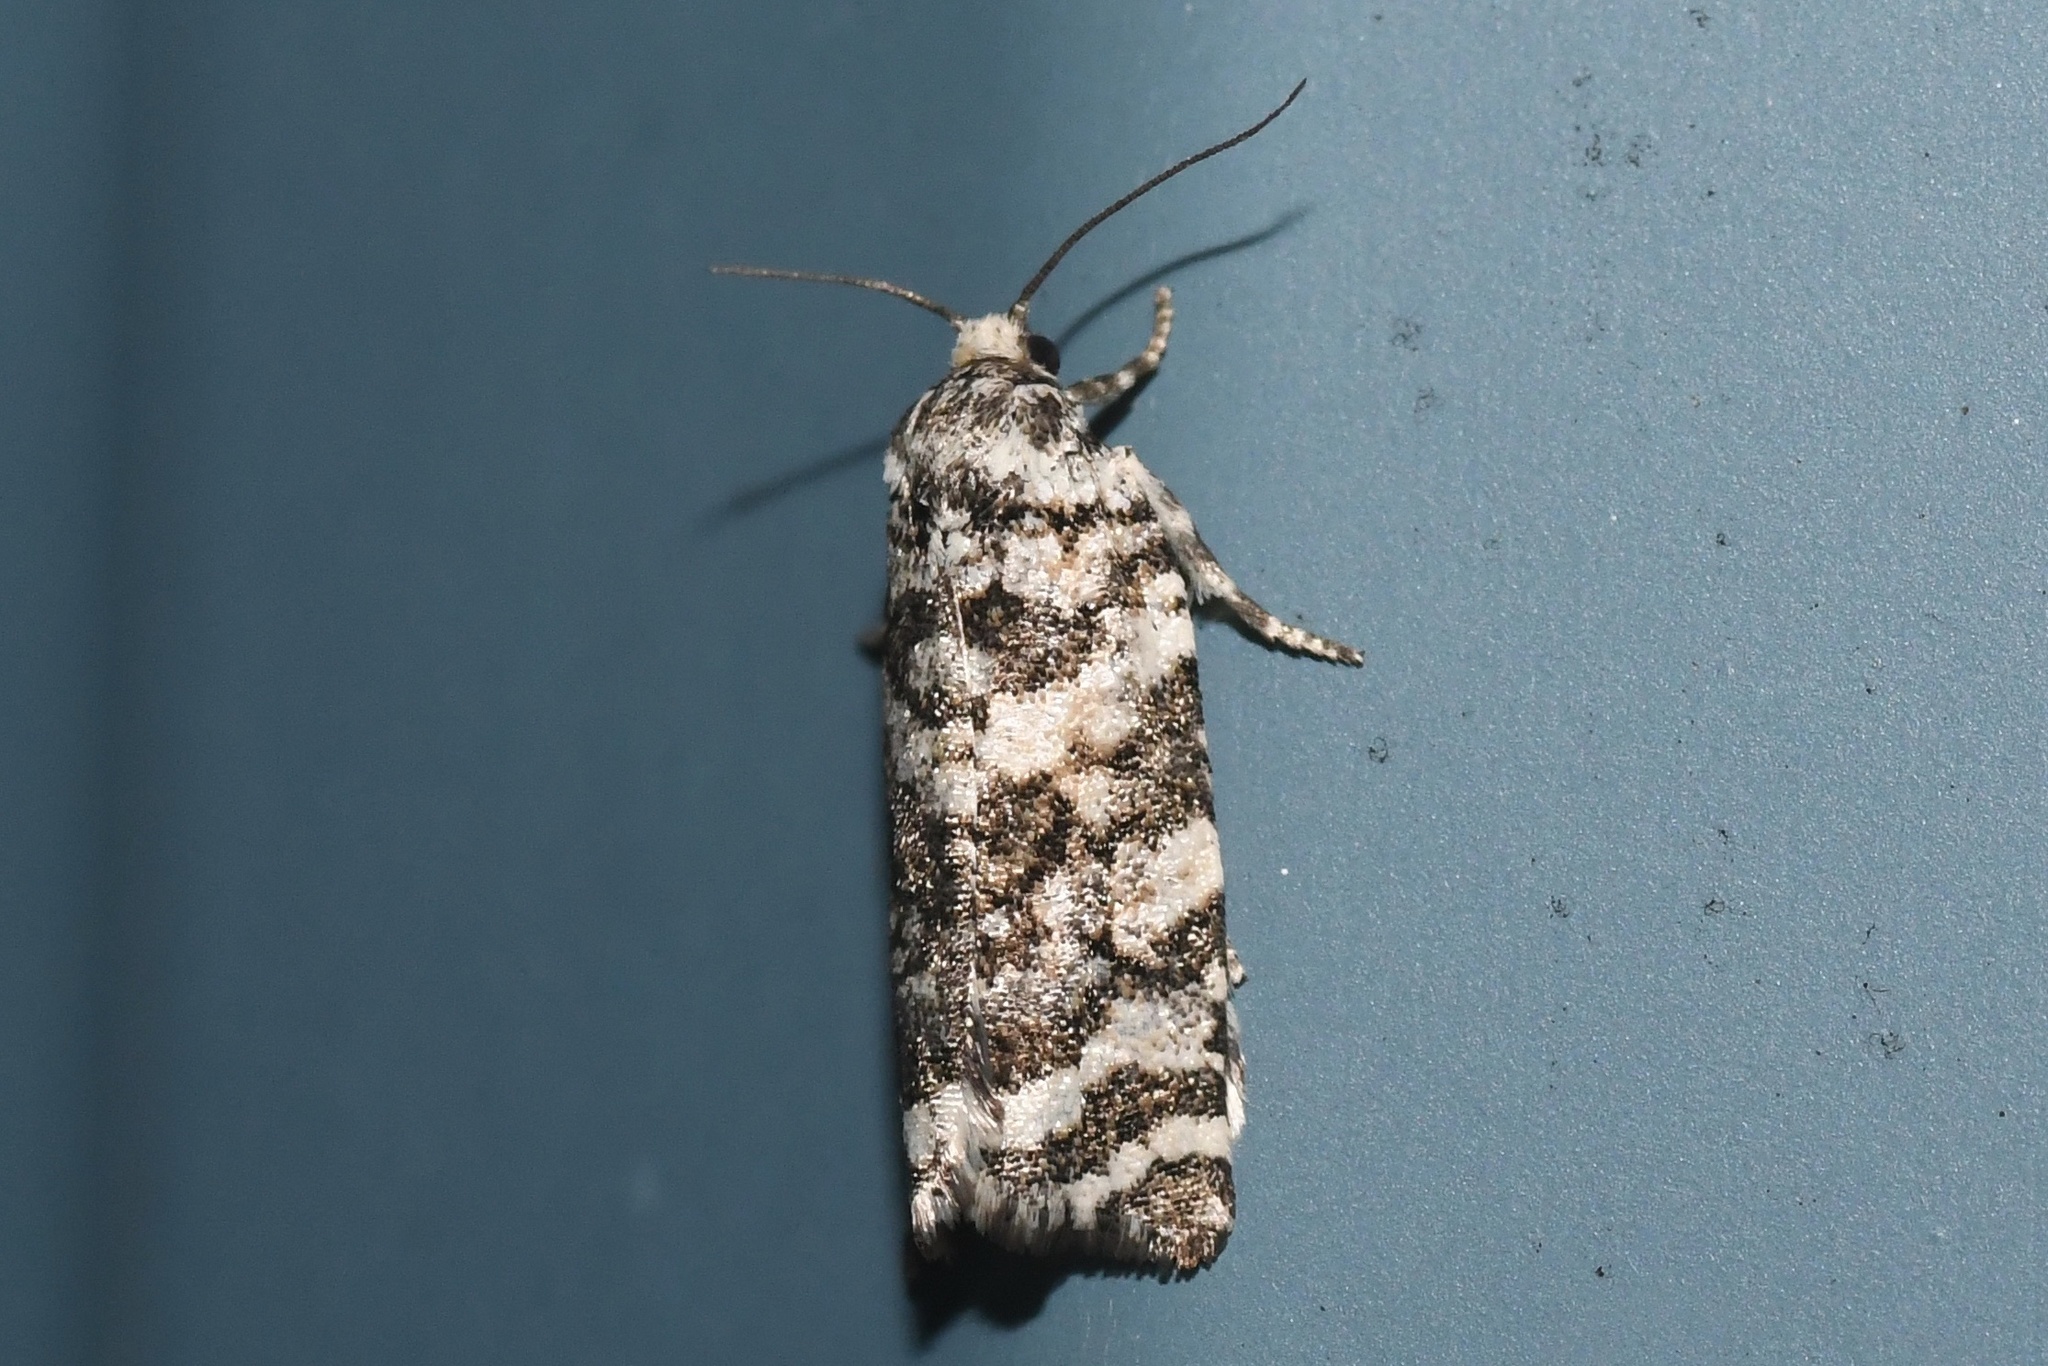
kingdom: Animalia
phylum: Arthropoda
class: Insecta
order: Lepidoptera
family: Tortricidae
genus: Archips
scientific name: Archips packardiana
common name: Spring spruce needle moth
